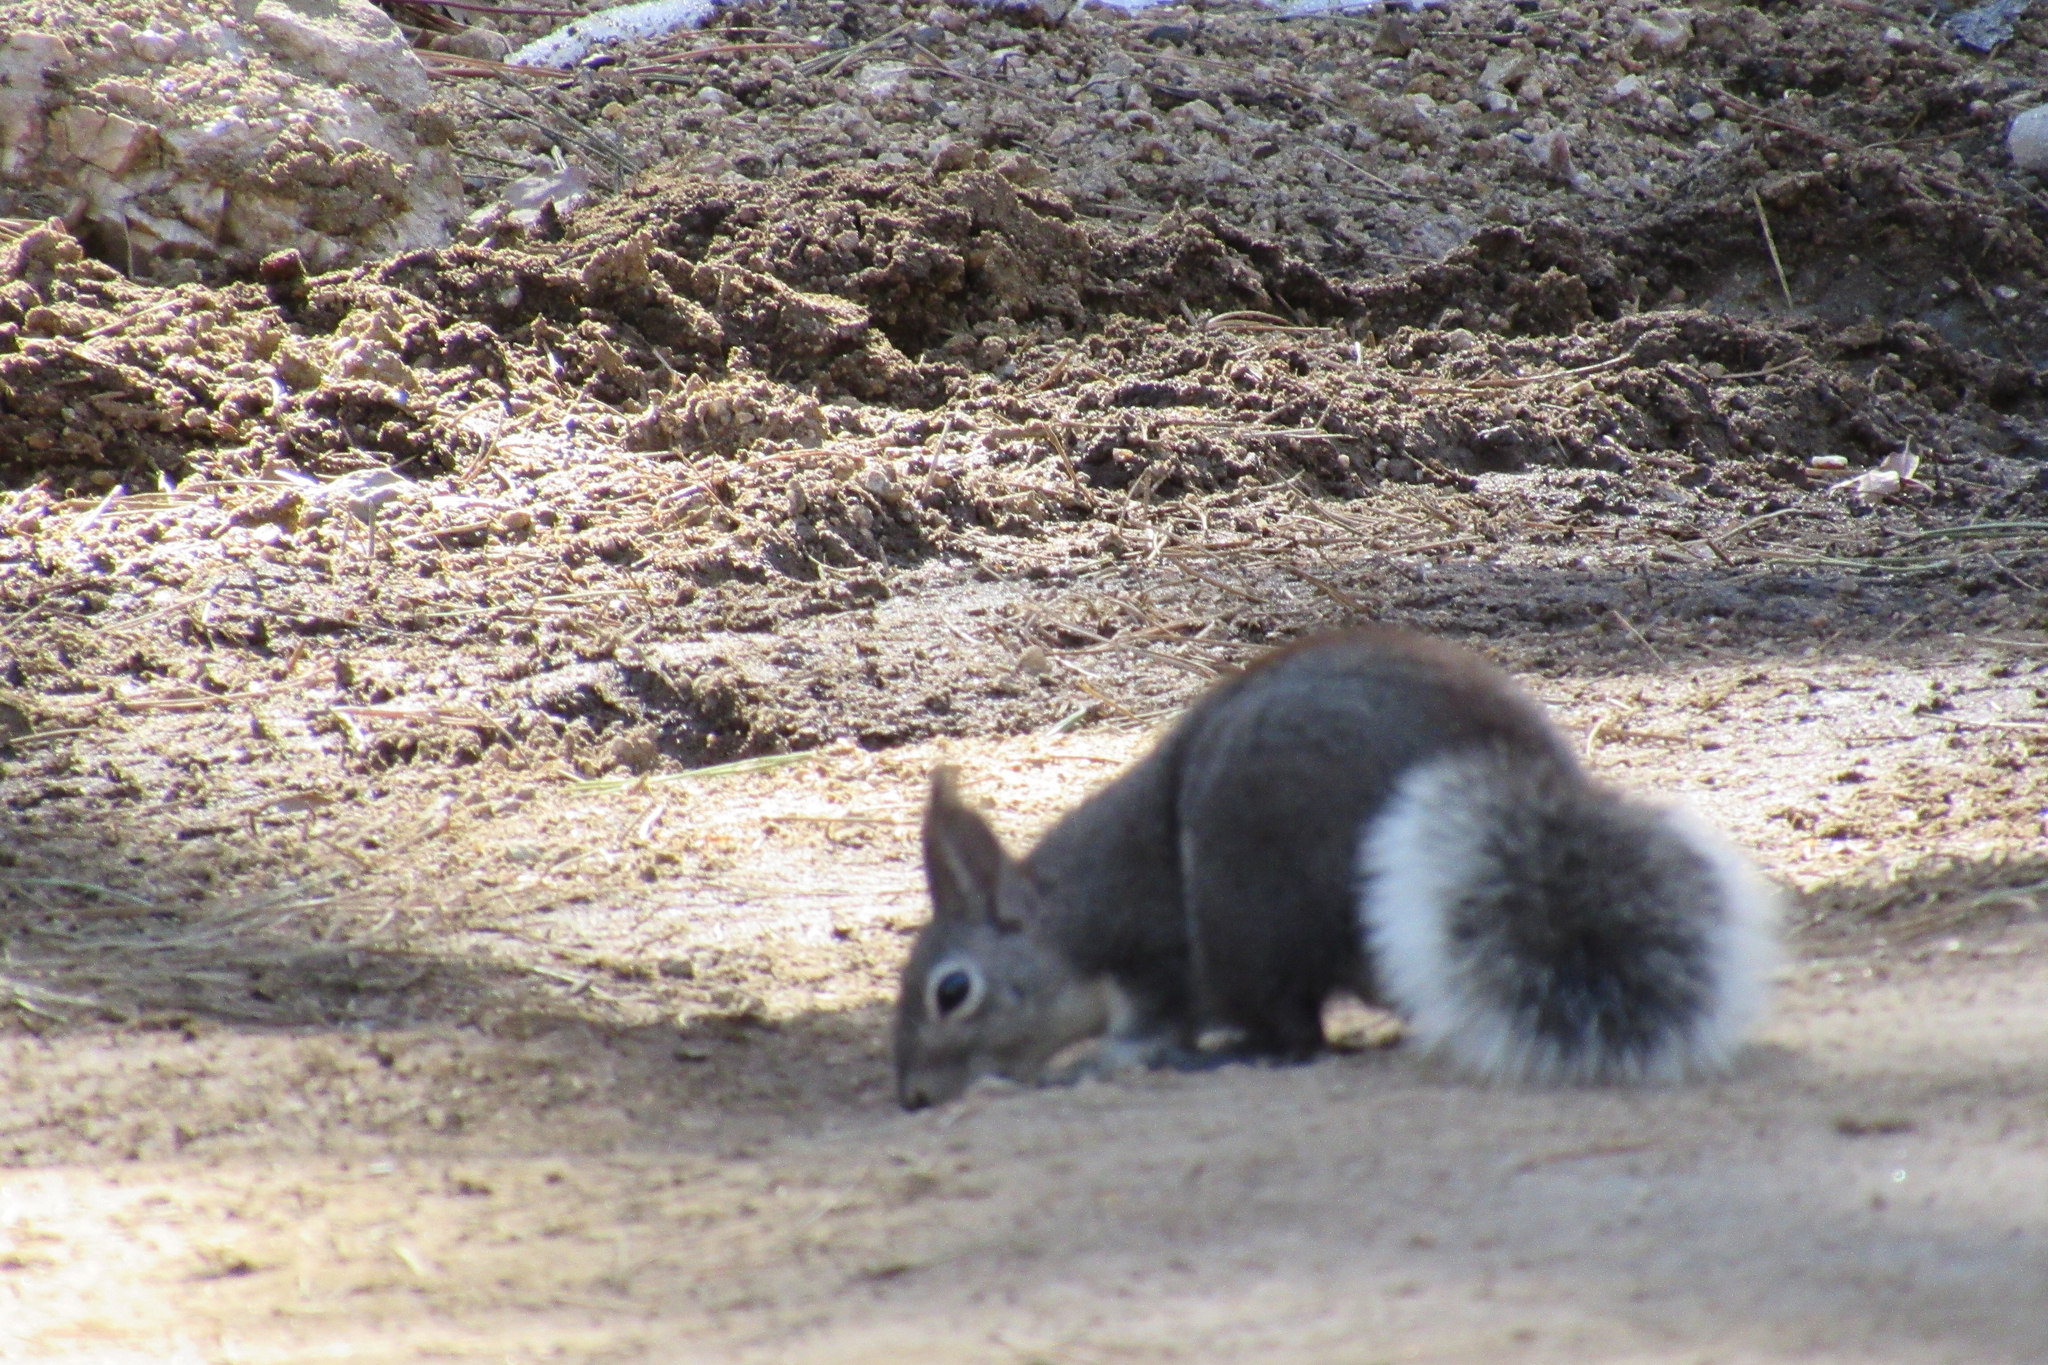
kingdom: Animalia
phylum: Chordata
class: Mammalia
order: Rodentia
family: Sciuridae
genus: Sciurus
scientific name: Sciurus aberti
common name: Abert's squirrel
